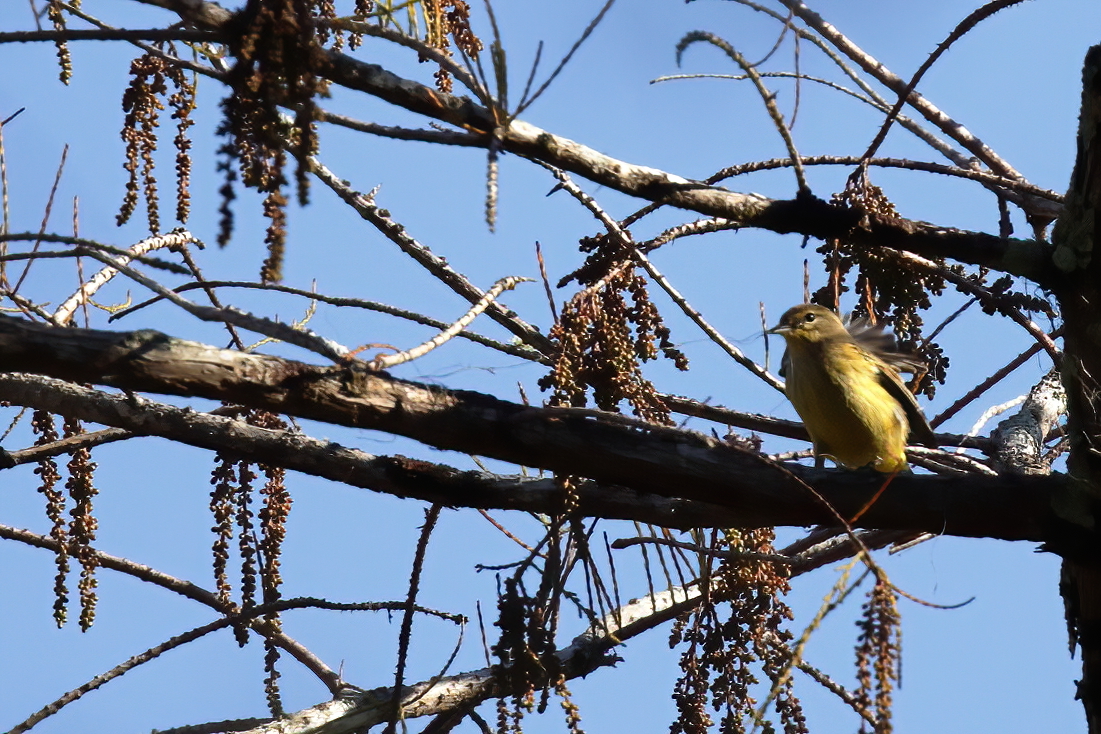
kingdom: Animalia
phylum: Chordata
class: Aves
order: Passeriformes
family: Parulidae
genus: Setophaga
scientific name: Setophaga palmarum
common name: Palm warbler
